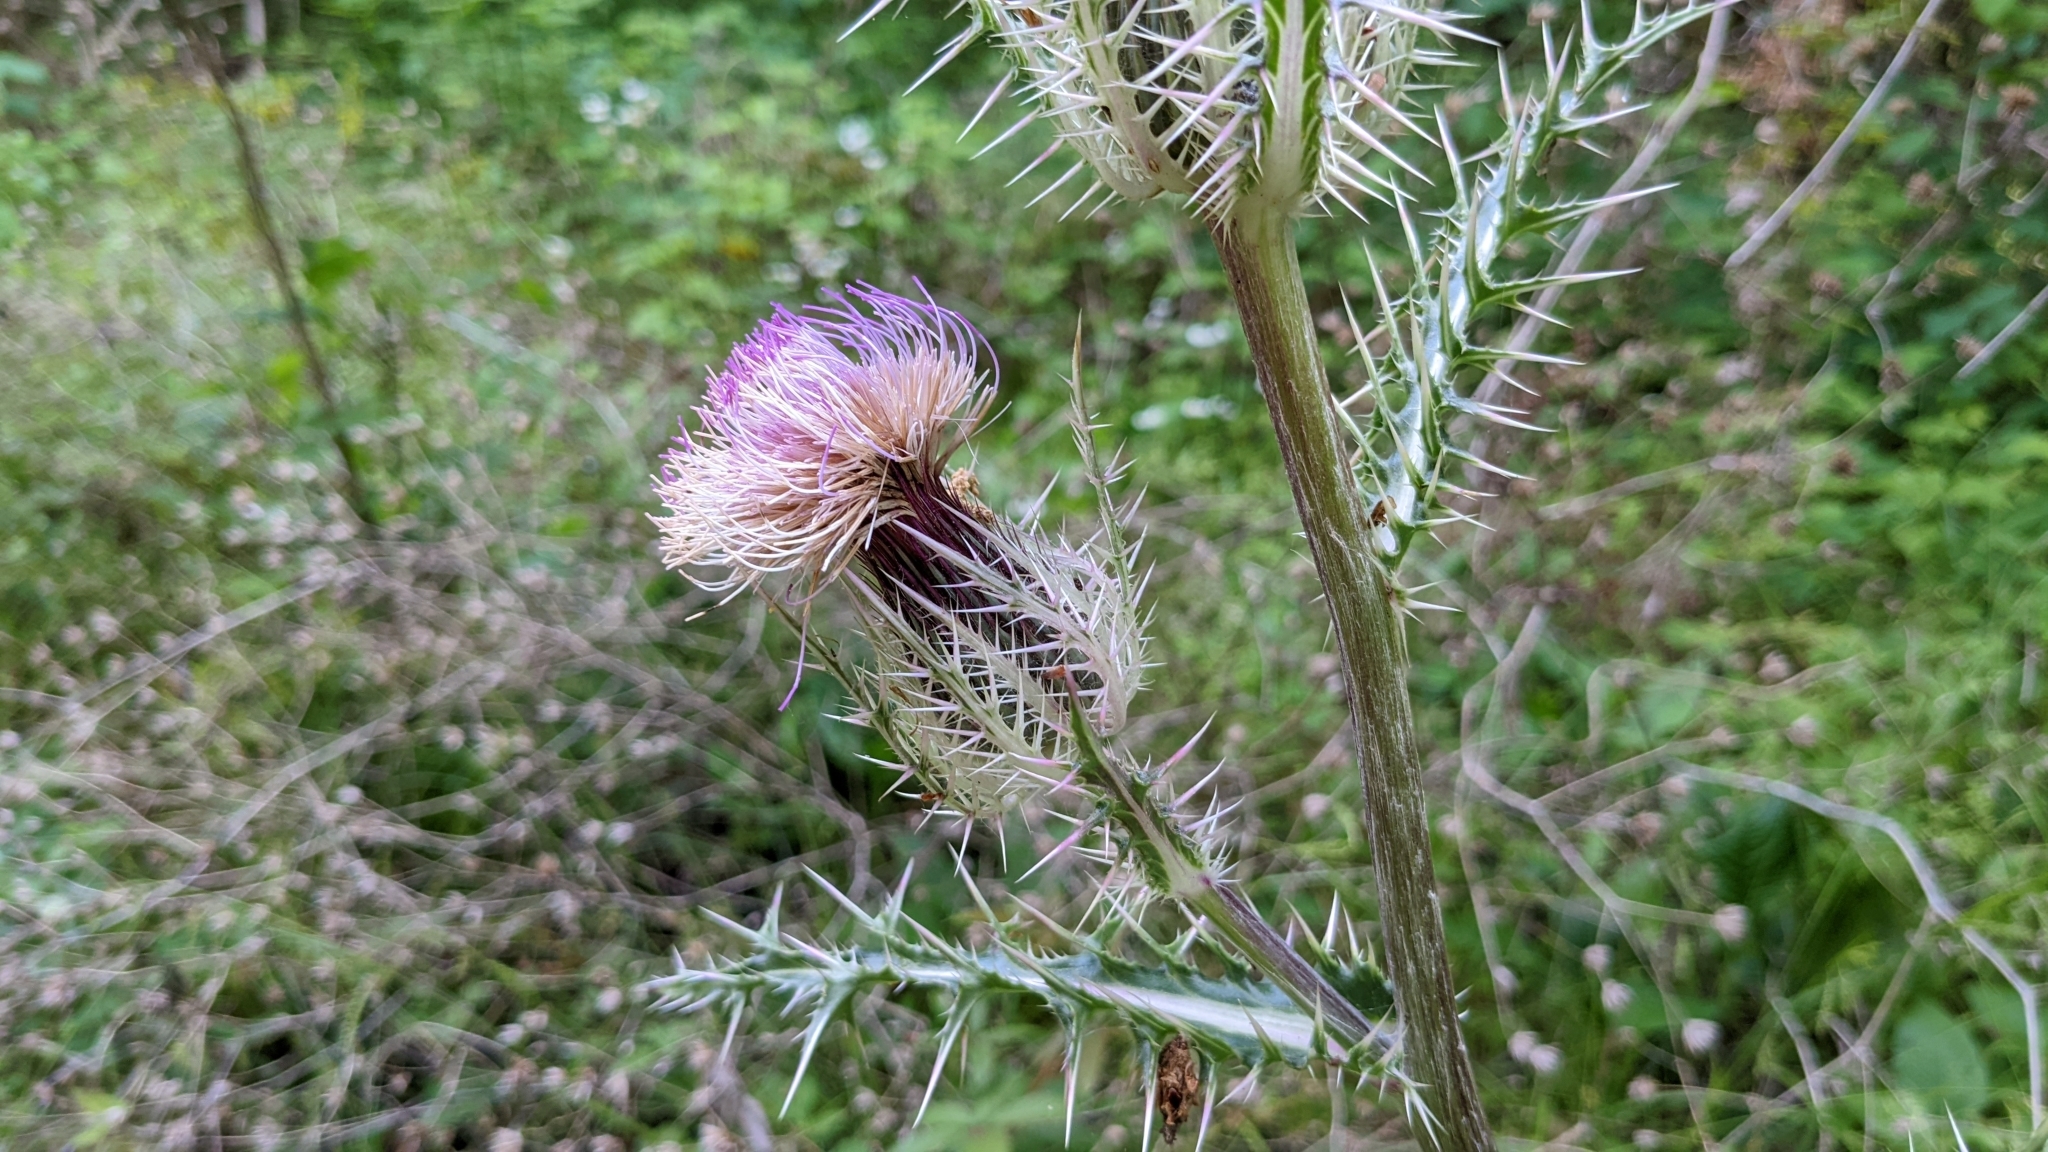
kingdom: Plantae
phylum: Tracheophyta
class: Magnoliopsida
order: Asterales
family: Asteraceae
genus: Cirsium
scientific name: Cirsium horridulum
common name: Bristly thistle
